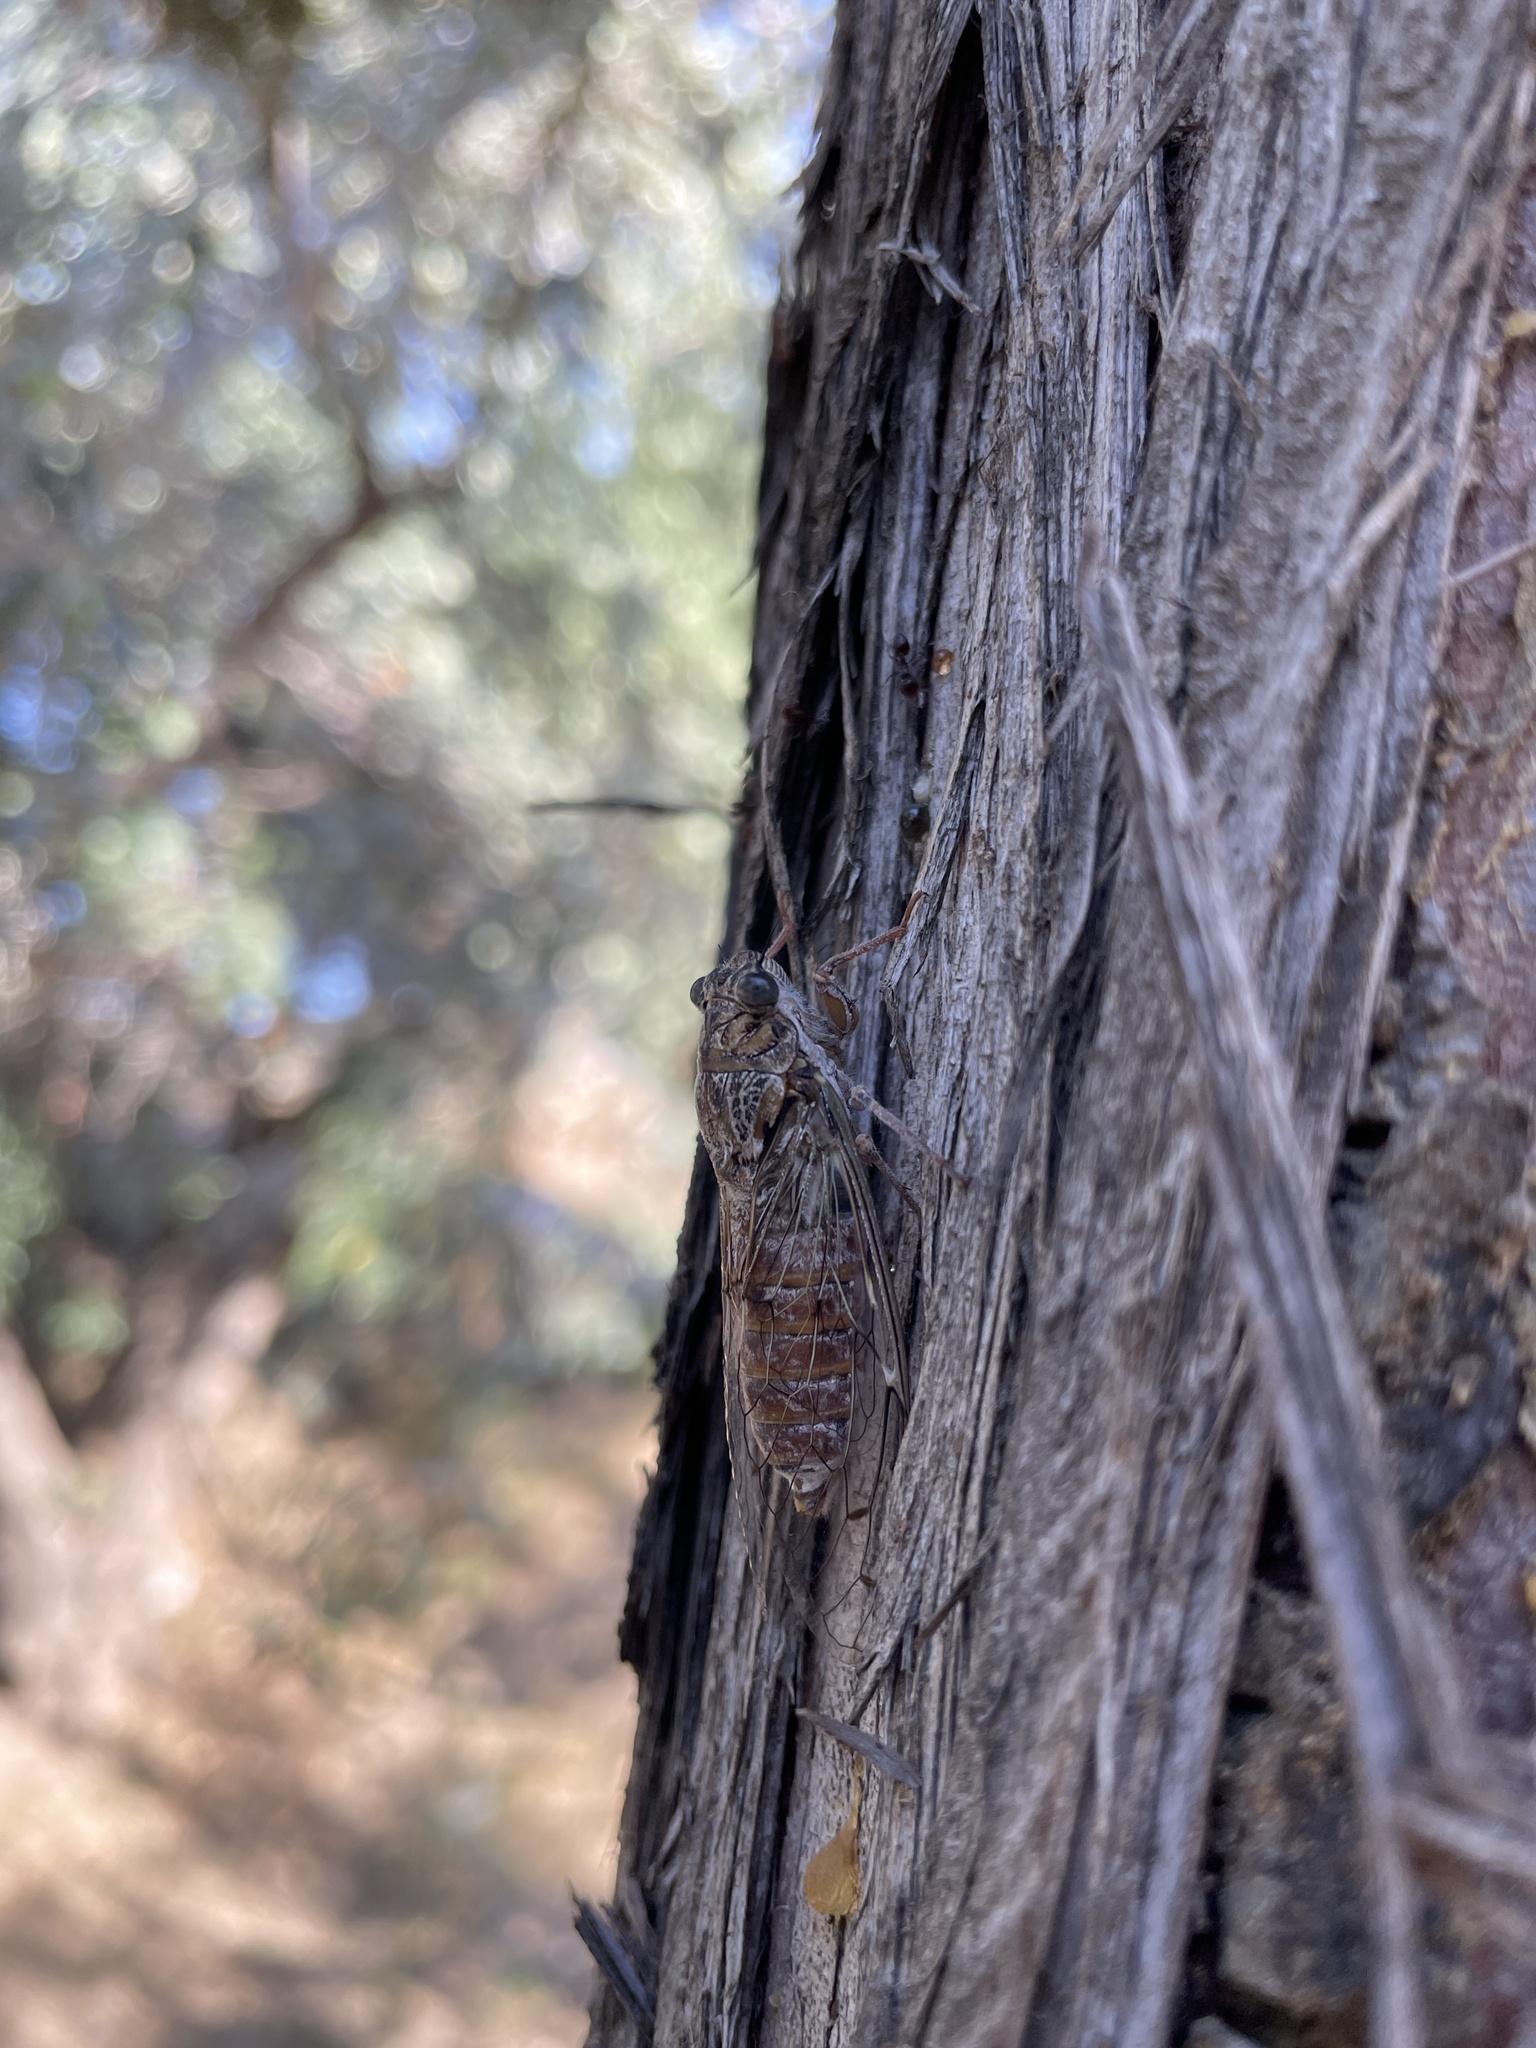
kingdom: Animalia
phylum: Arthropoda
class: Insecta
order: Hemiptera
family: Cicadidae
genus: Cicada
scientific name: Cicada orni
